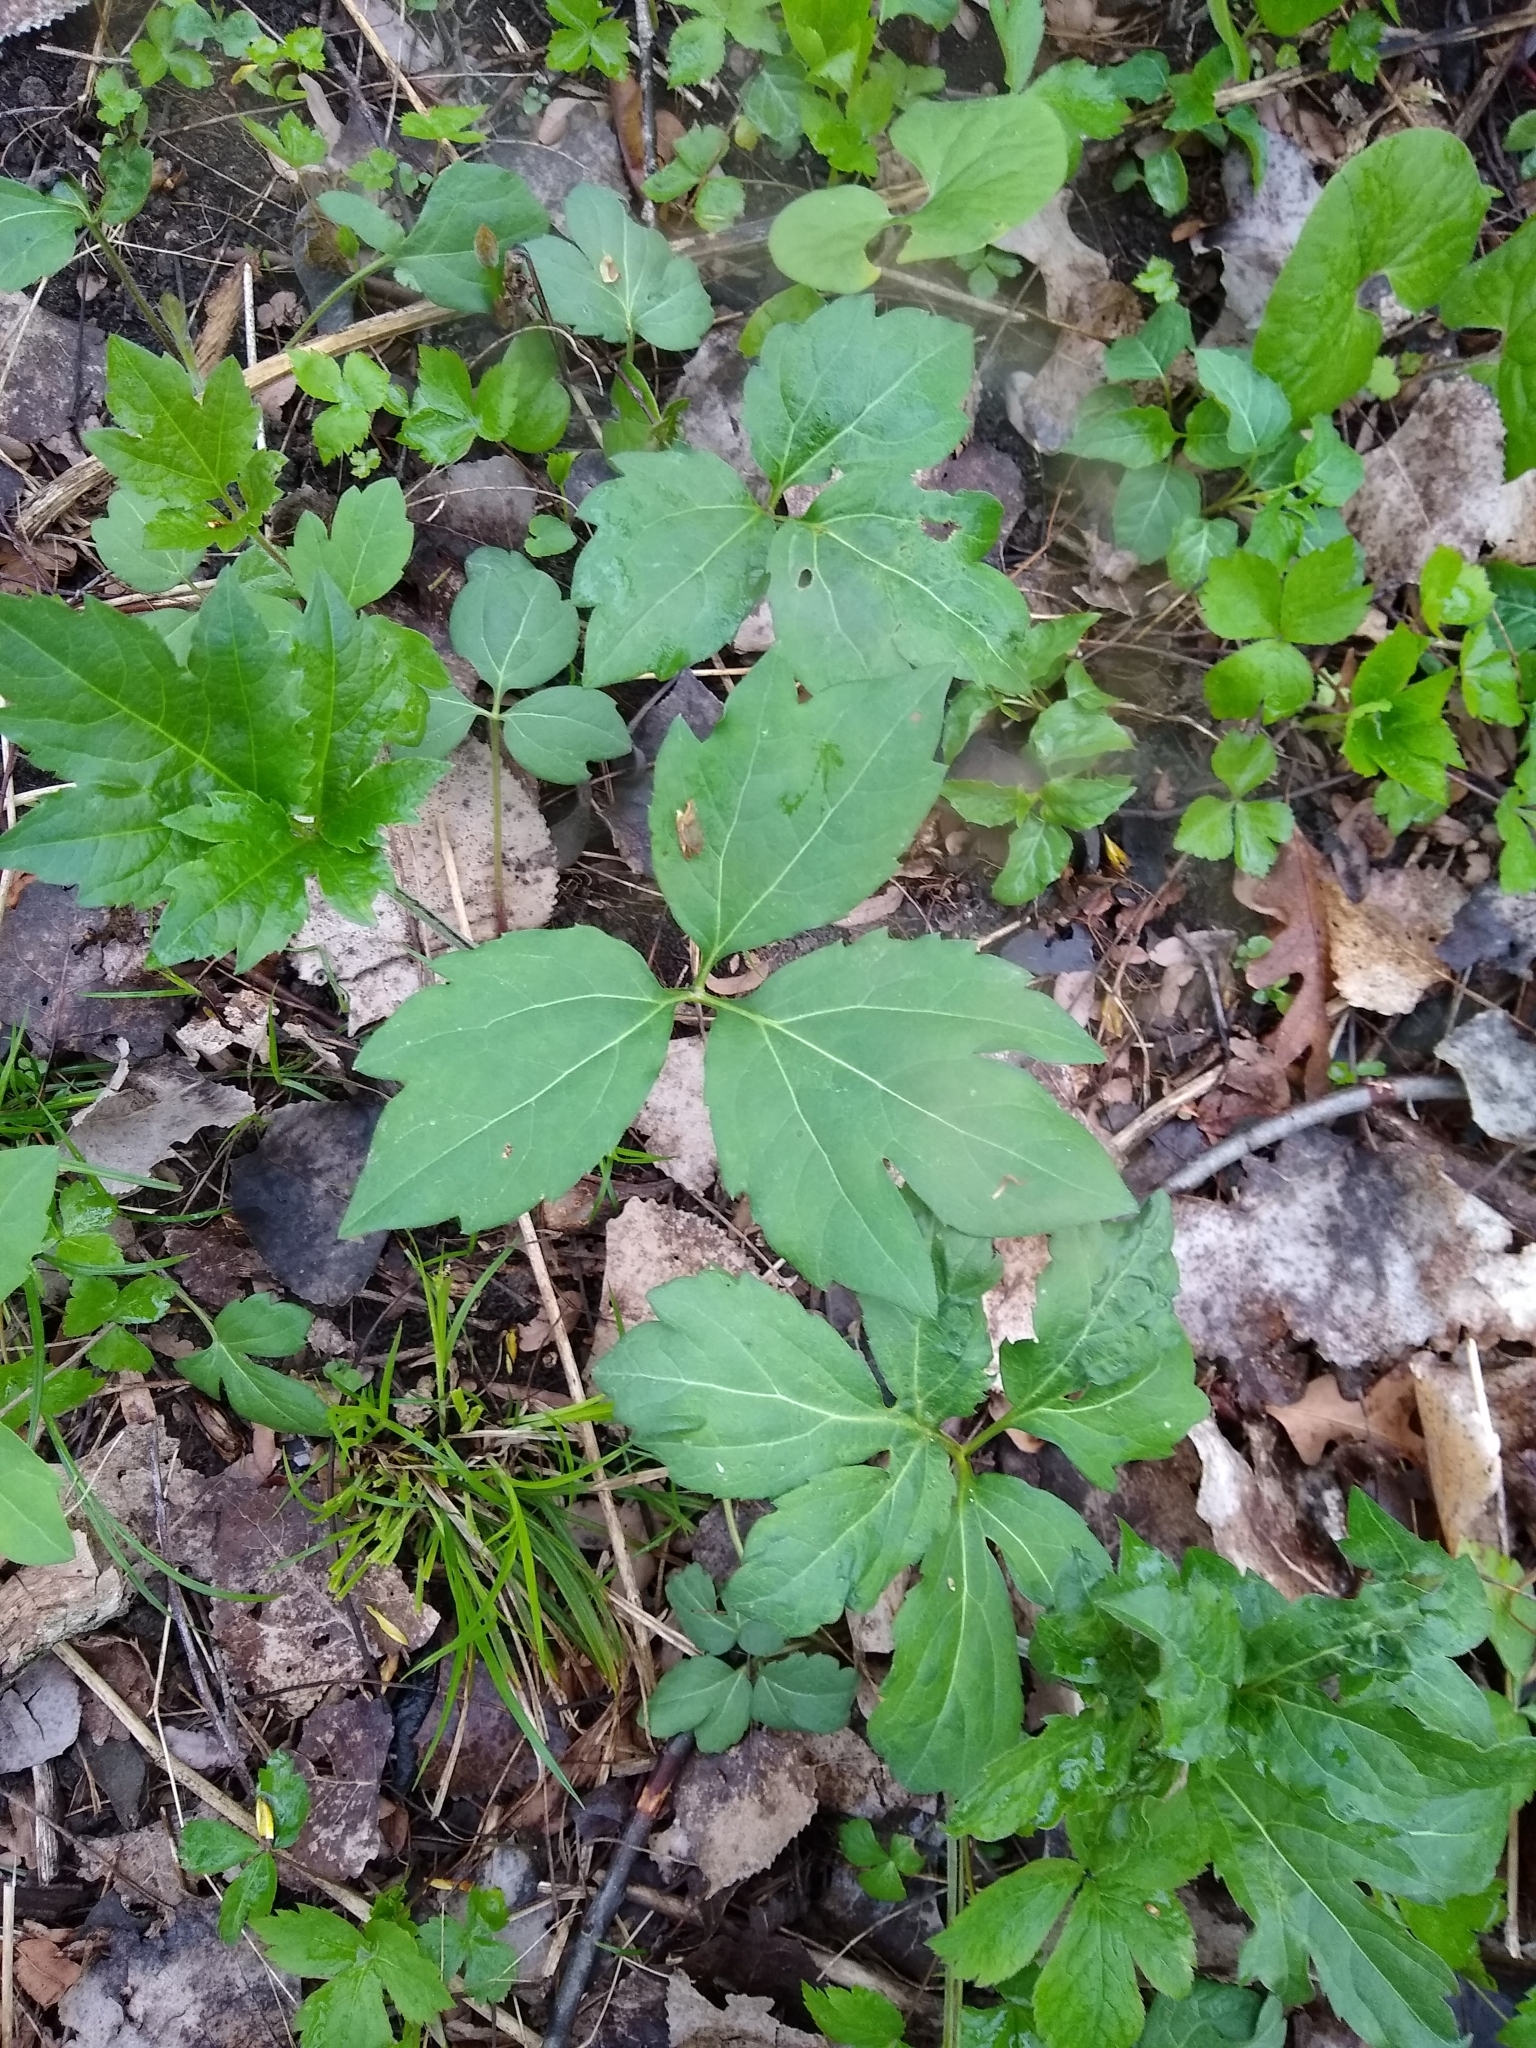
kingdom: Plantae
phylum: Tracheophyta
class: Magnoliopsida
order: Asterales
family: Asteraceae
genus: Rudbeckia
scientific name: Rudbeckia laciniata
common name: Coneflower
